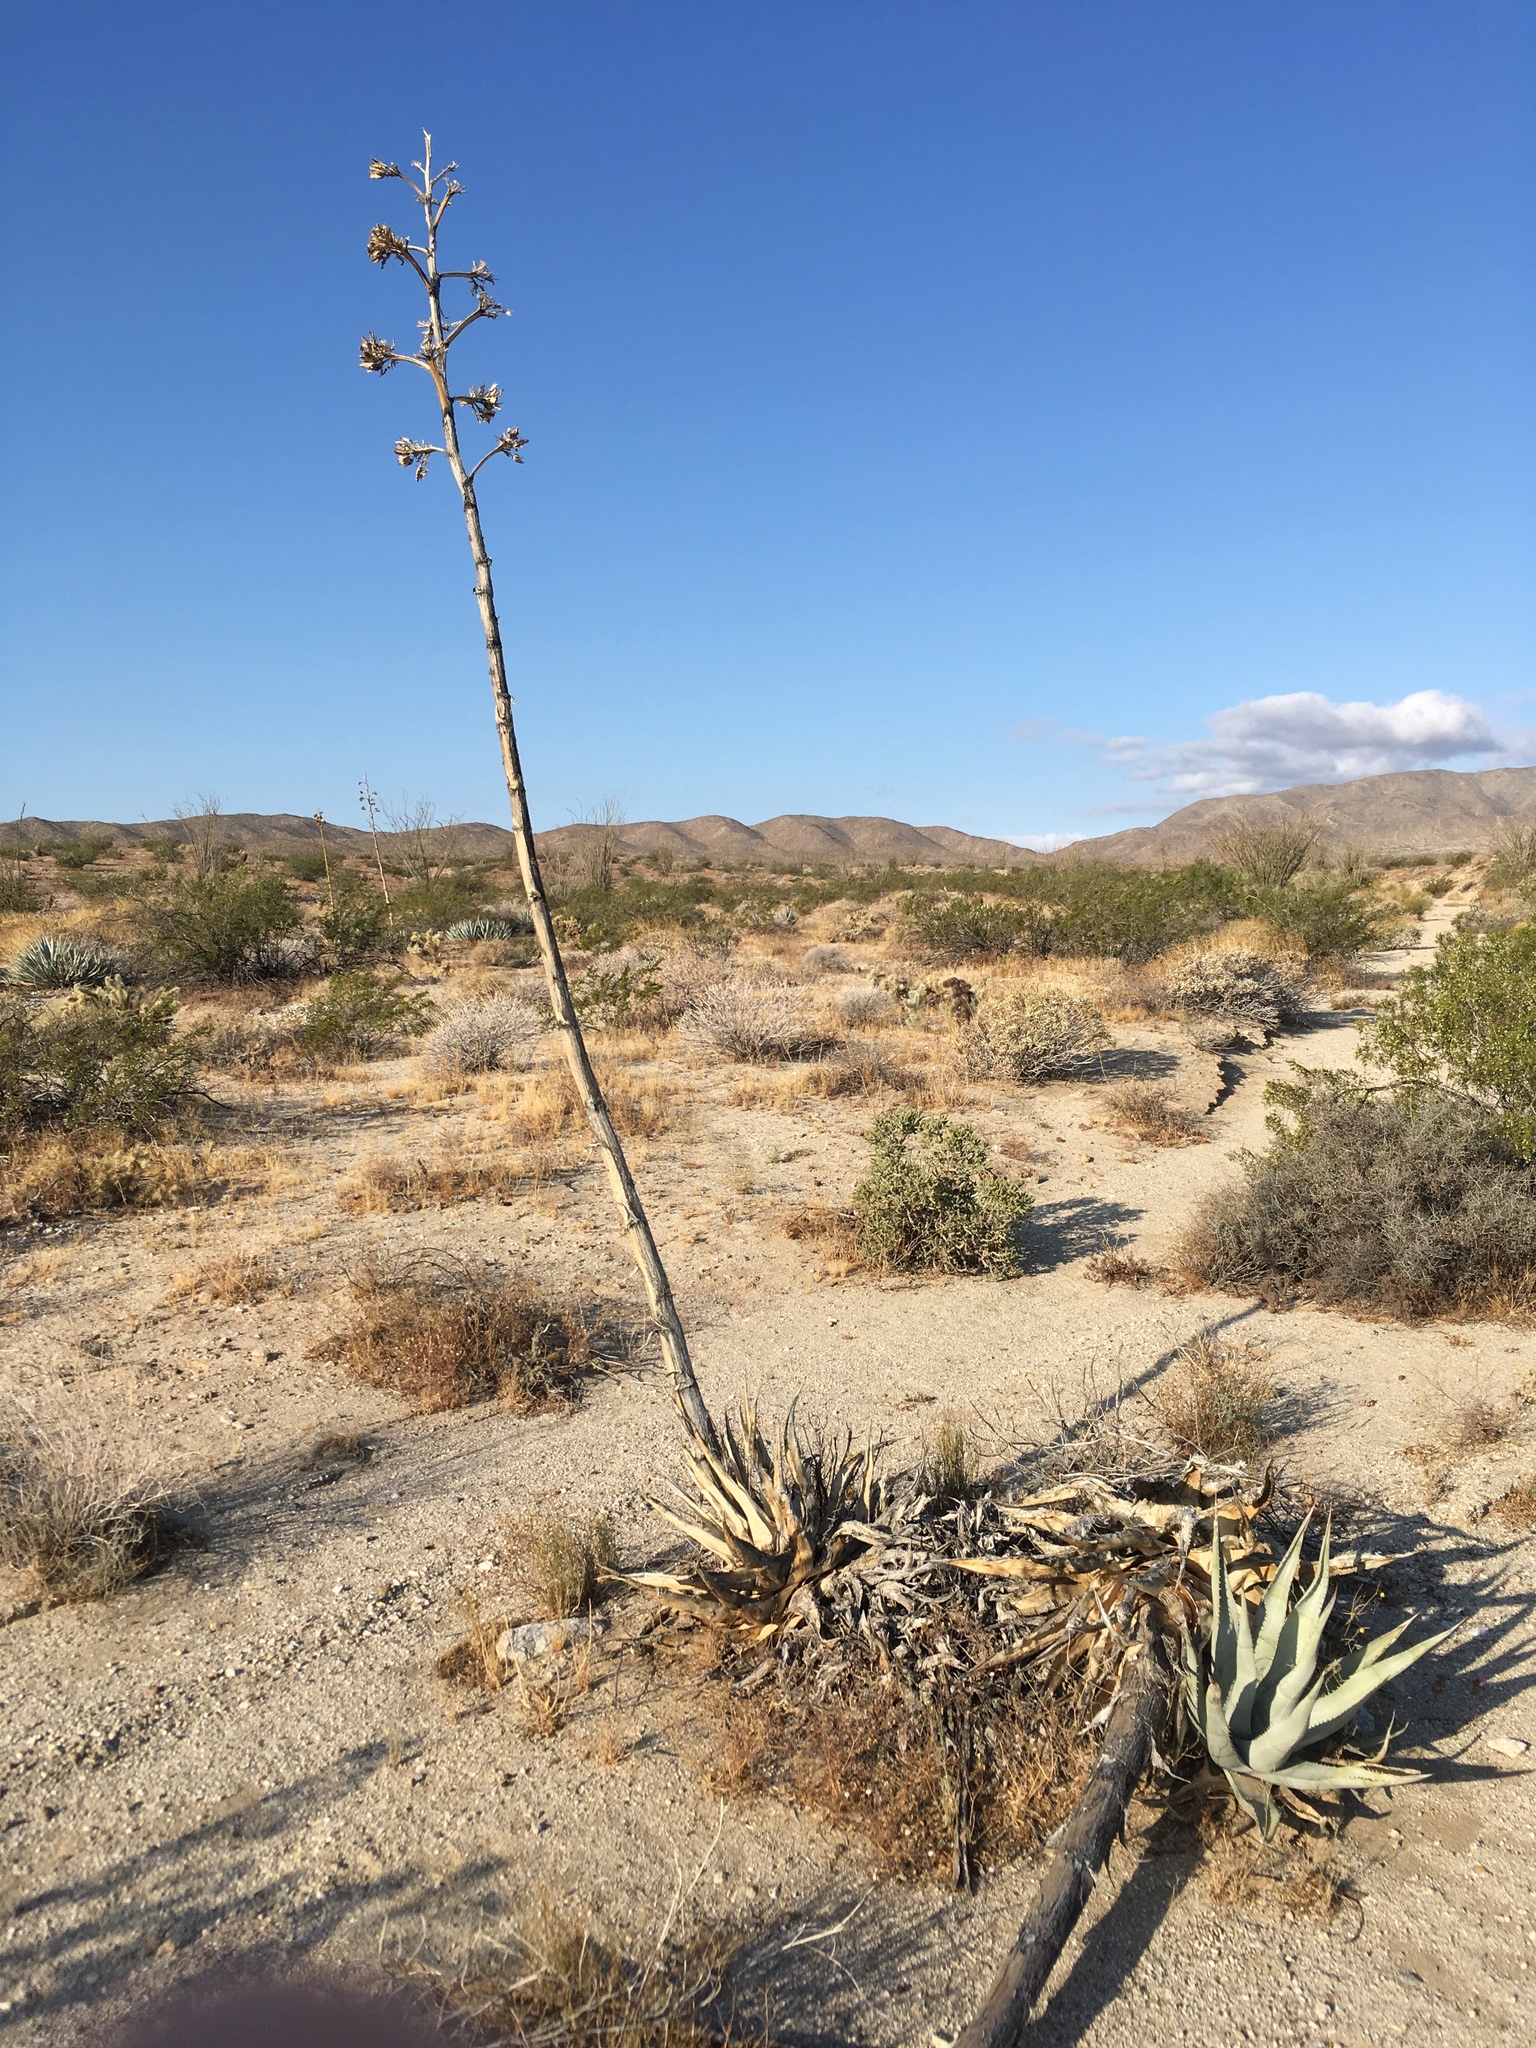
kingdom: Plantae
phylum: Tracheophyta
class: Liliopsida
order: Asparagales
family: Asparagaceae
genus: Agave
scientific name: Agave deserti
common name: Desert agave
